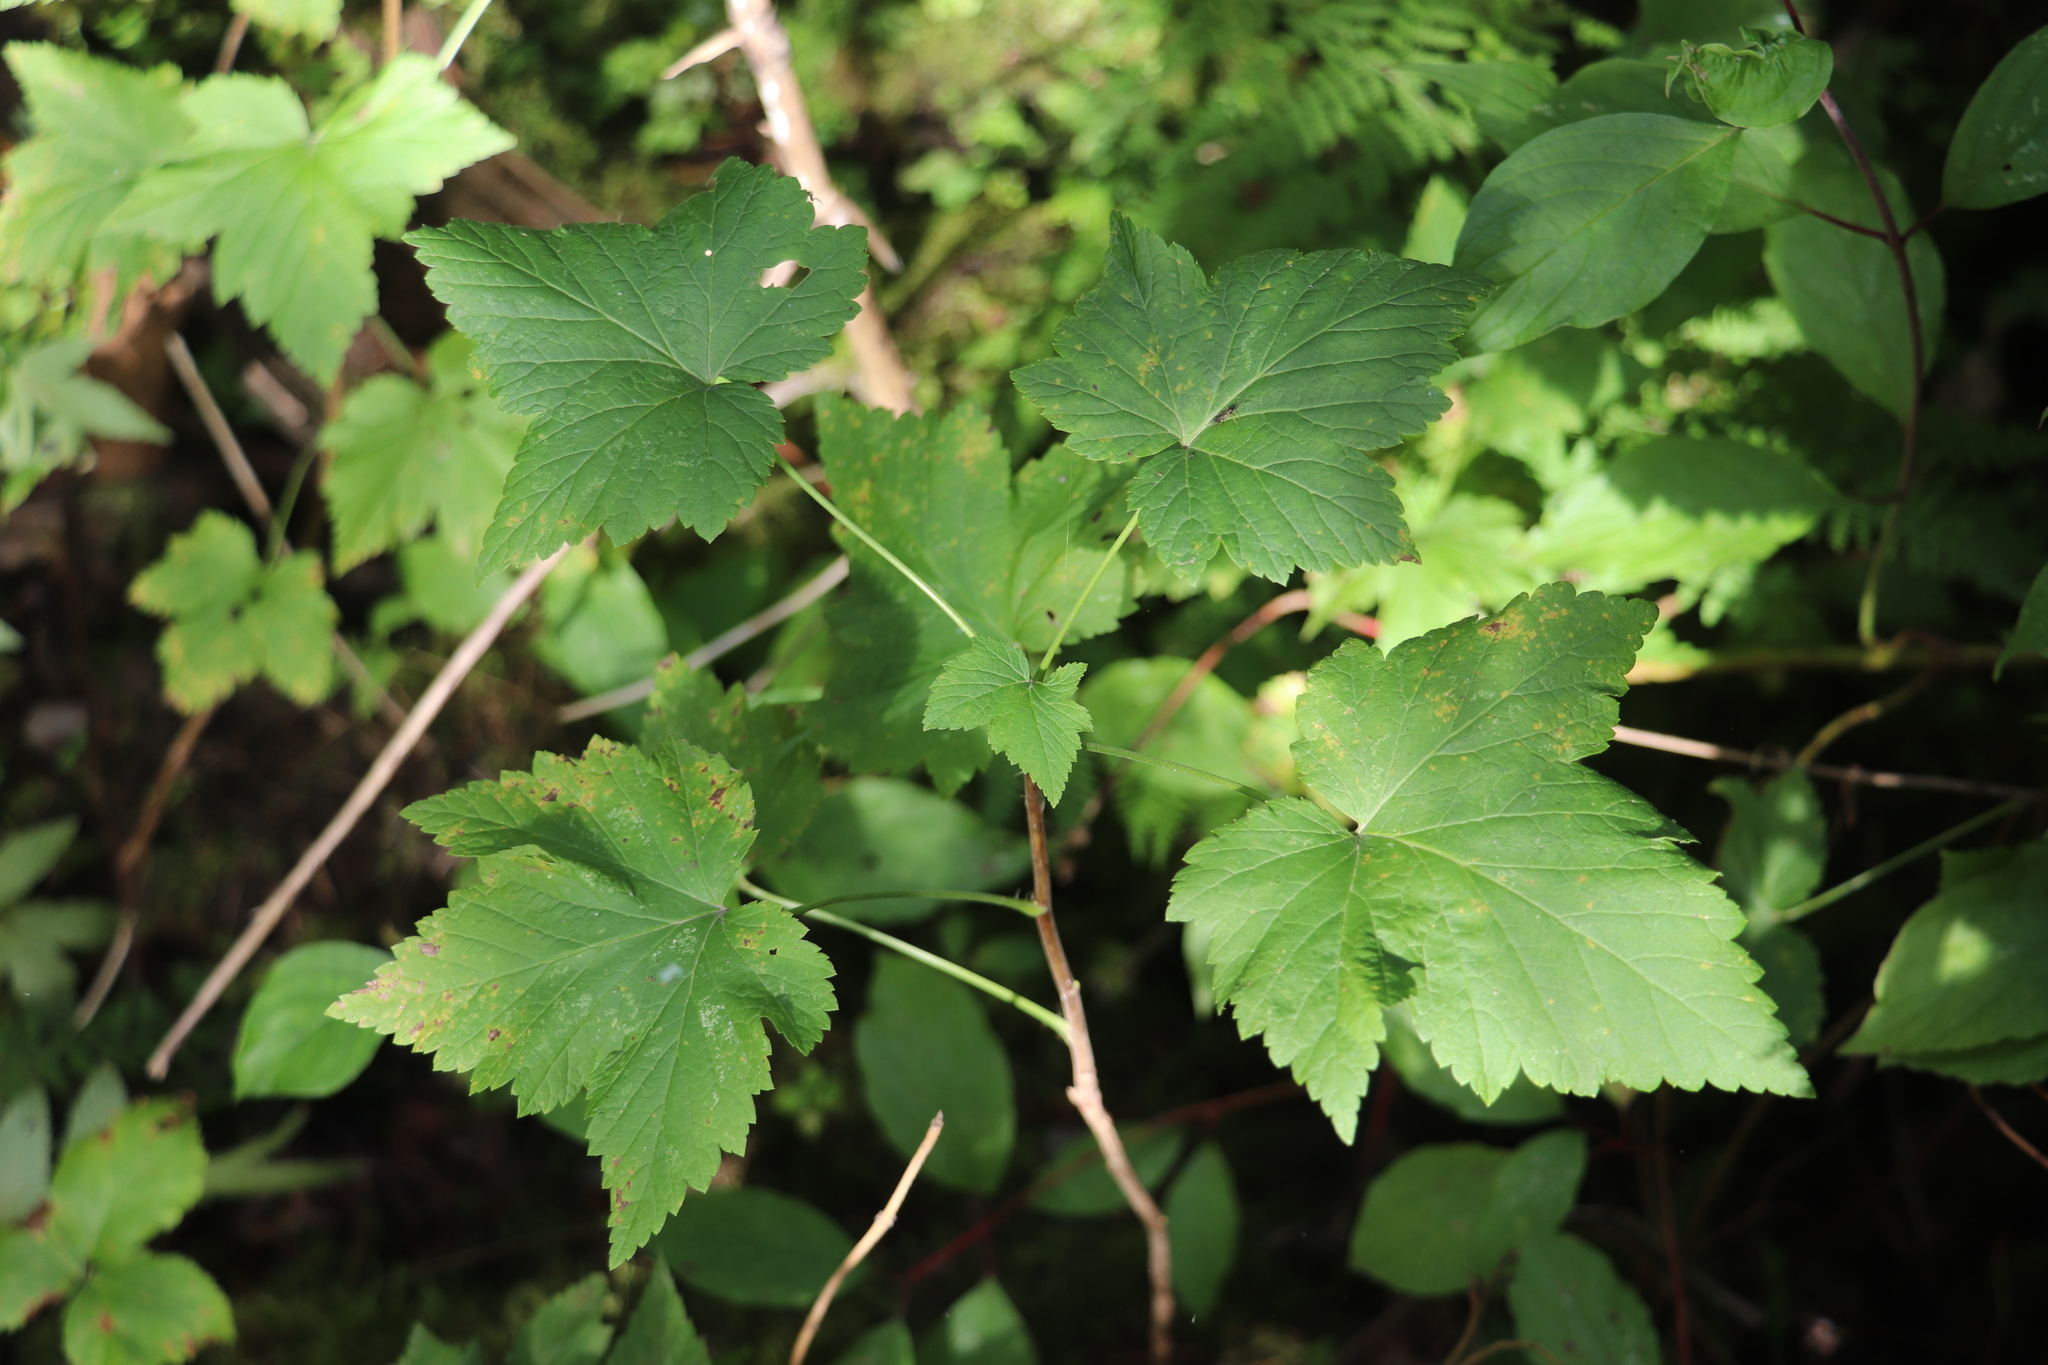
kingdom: Plantae
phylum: Tracheophyta
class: Magnoliopsida
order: Saxifragales
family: Grossulariaceae
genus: Ribes
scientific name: Ribes nigrum
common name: Black currant
